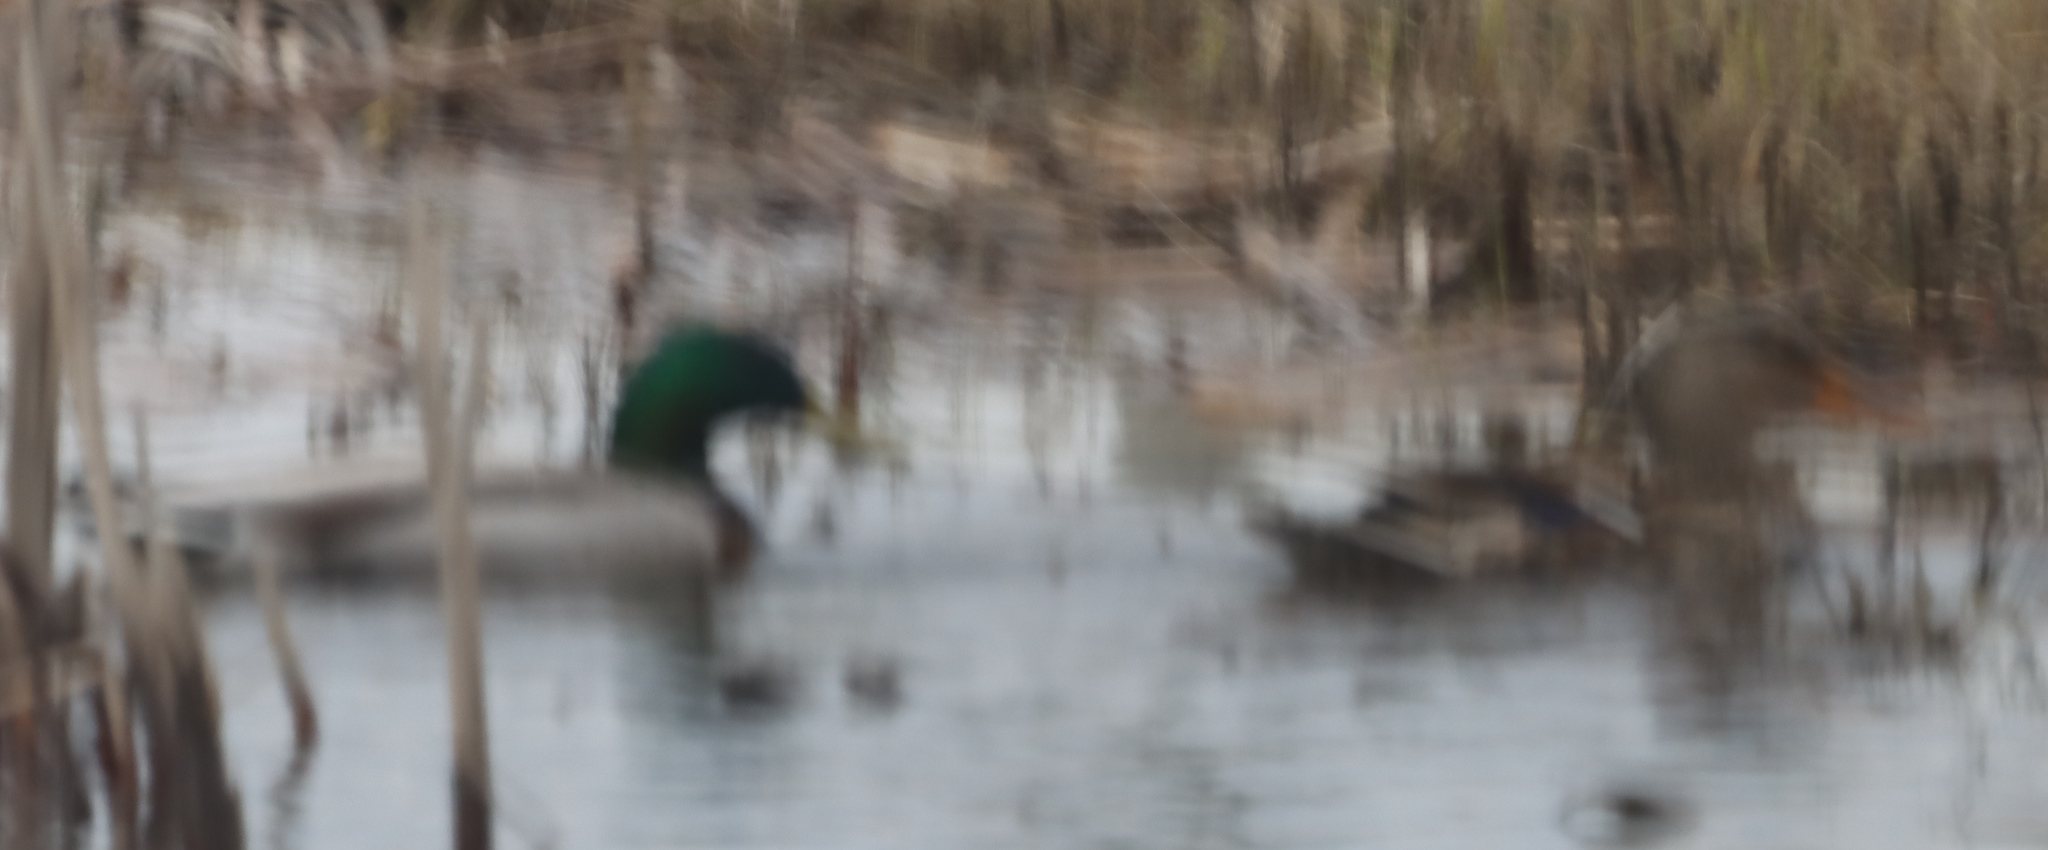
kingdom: Animalia
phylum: Chordata
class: Aves
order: Anseriformes
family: Anatidae
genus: Anas
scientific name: Anas platyrhynchos
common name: Mallard
